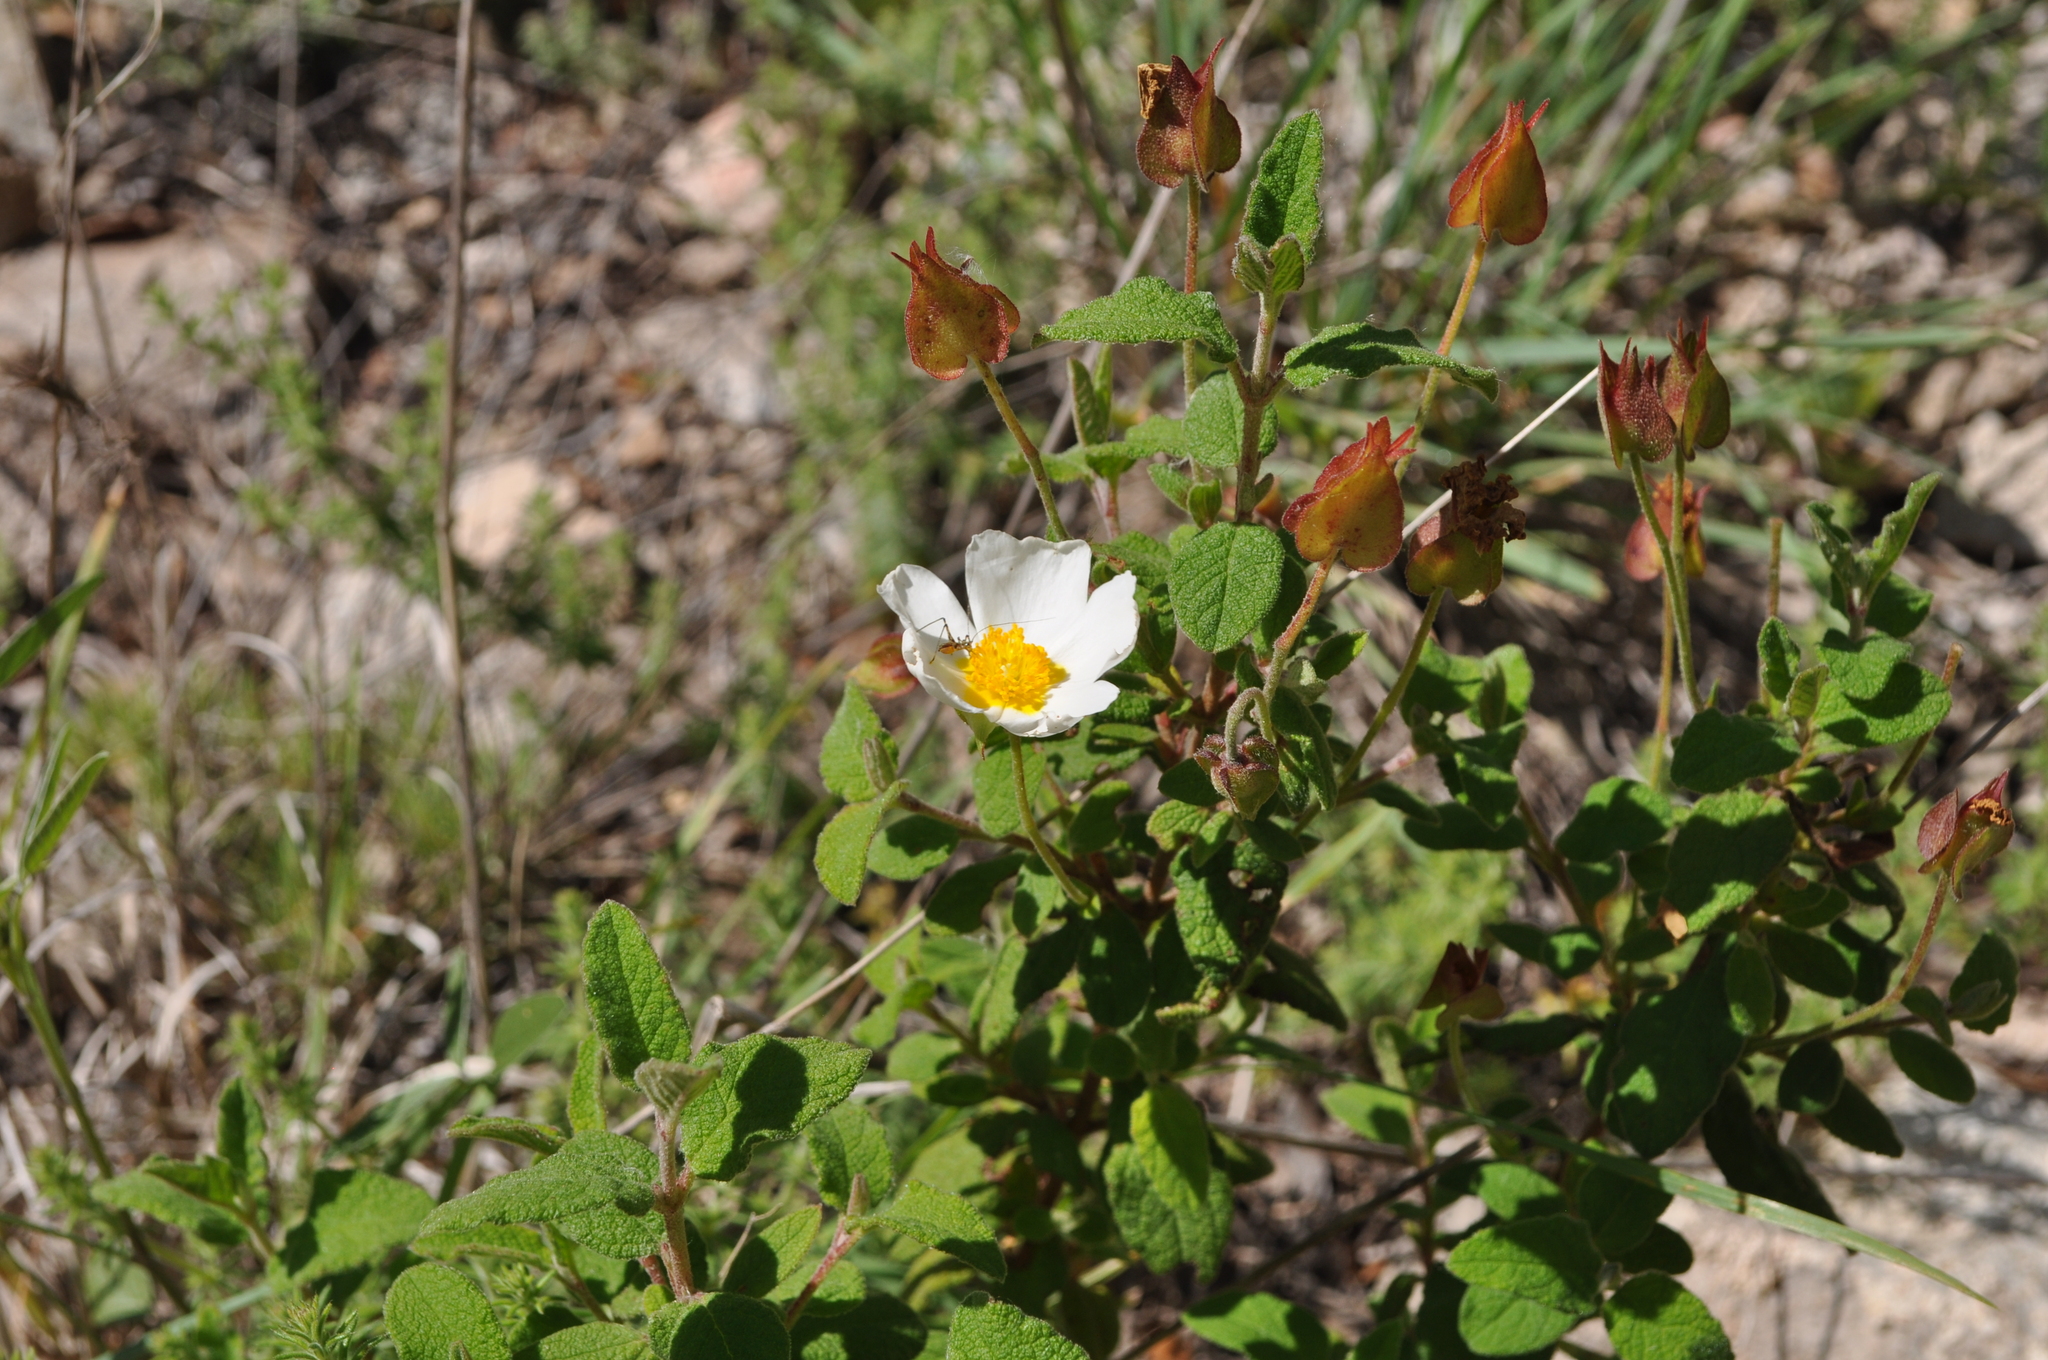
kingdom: Plantae
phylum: Tracheophyta
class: Magnoliopsida
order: Malvales
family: Cistaceae
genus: Cistus
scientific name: Cistus salviifolius
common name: Salvia cistus
